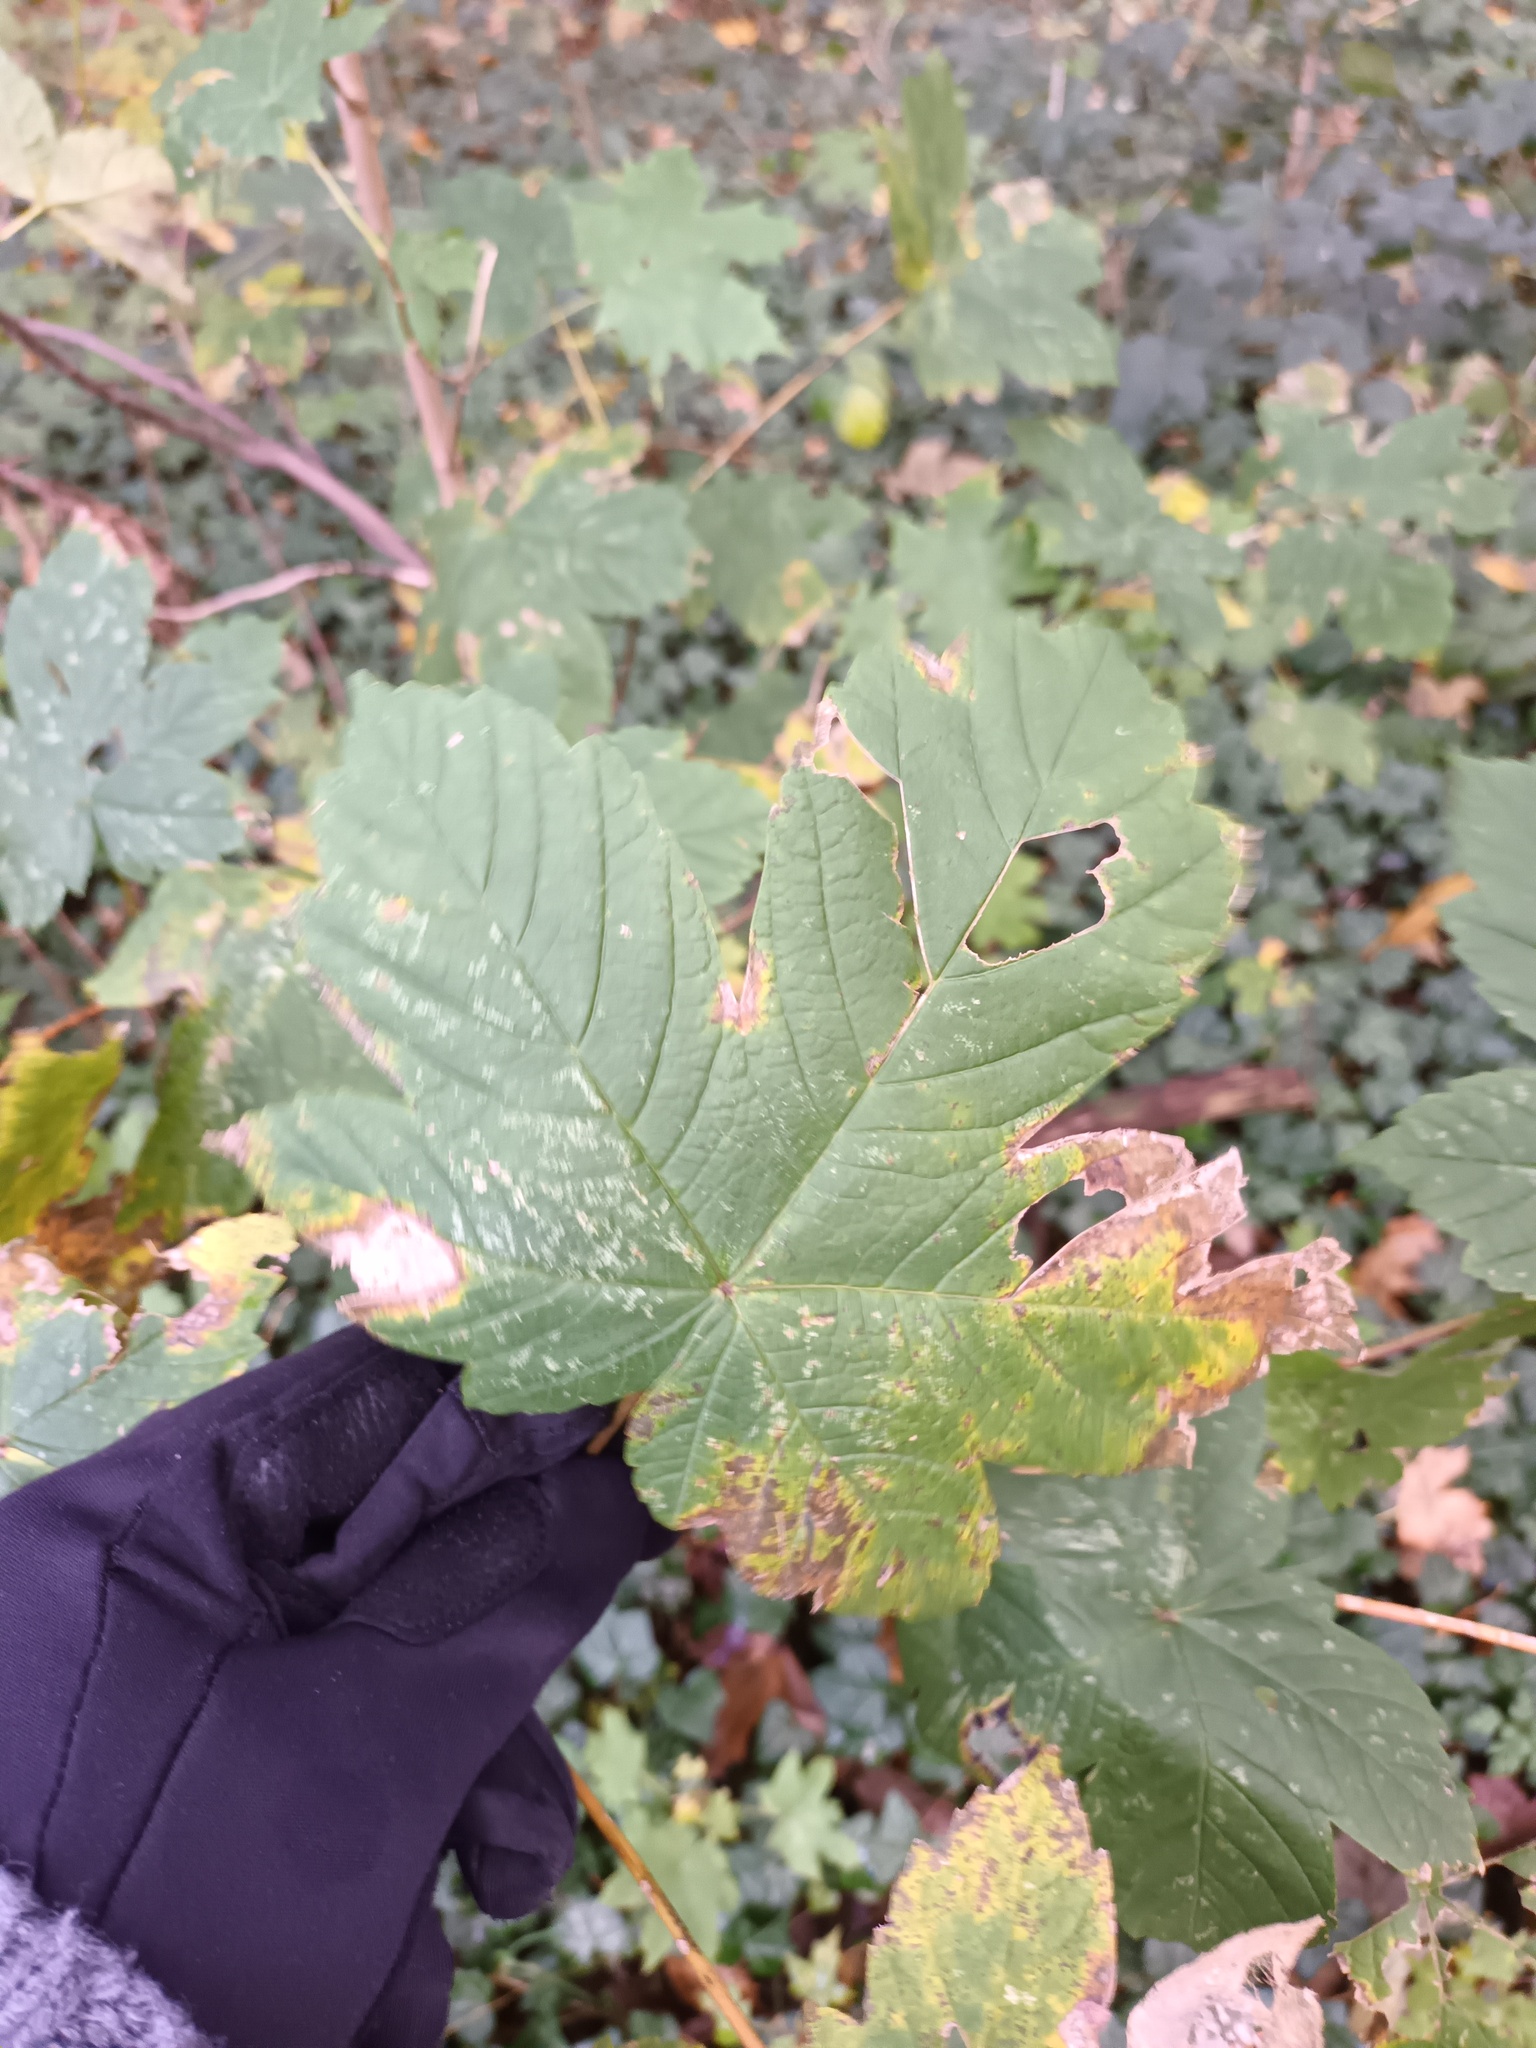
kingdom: Plantae
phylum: Tracheophyta
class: Magnoliopsida
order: Sapindales
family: Sapindaceae
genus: Acer
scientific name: Acer pseudoplatanus
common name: Sycamore
